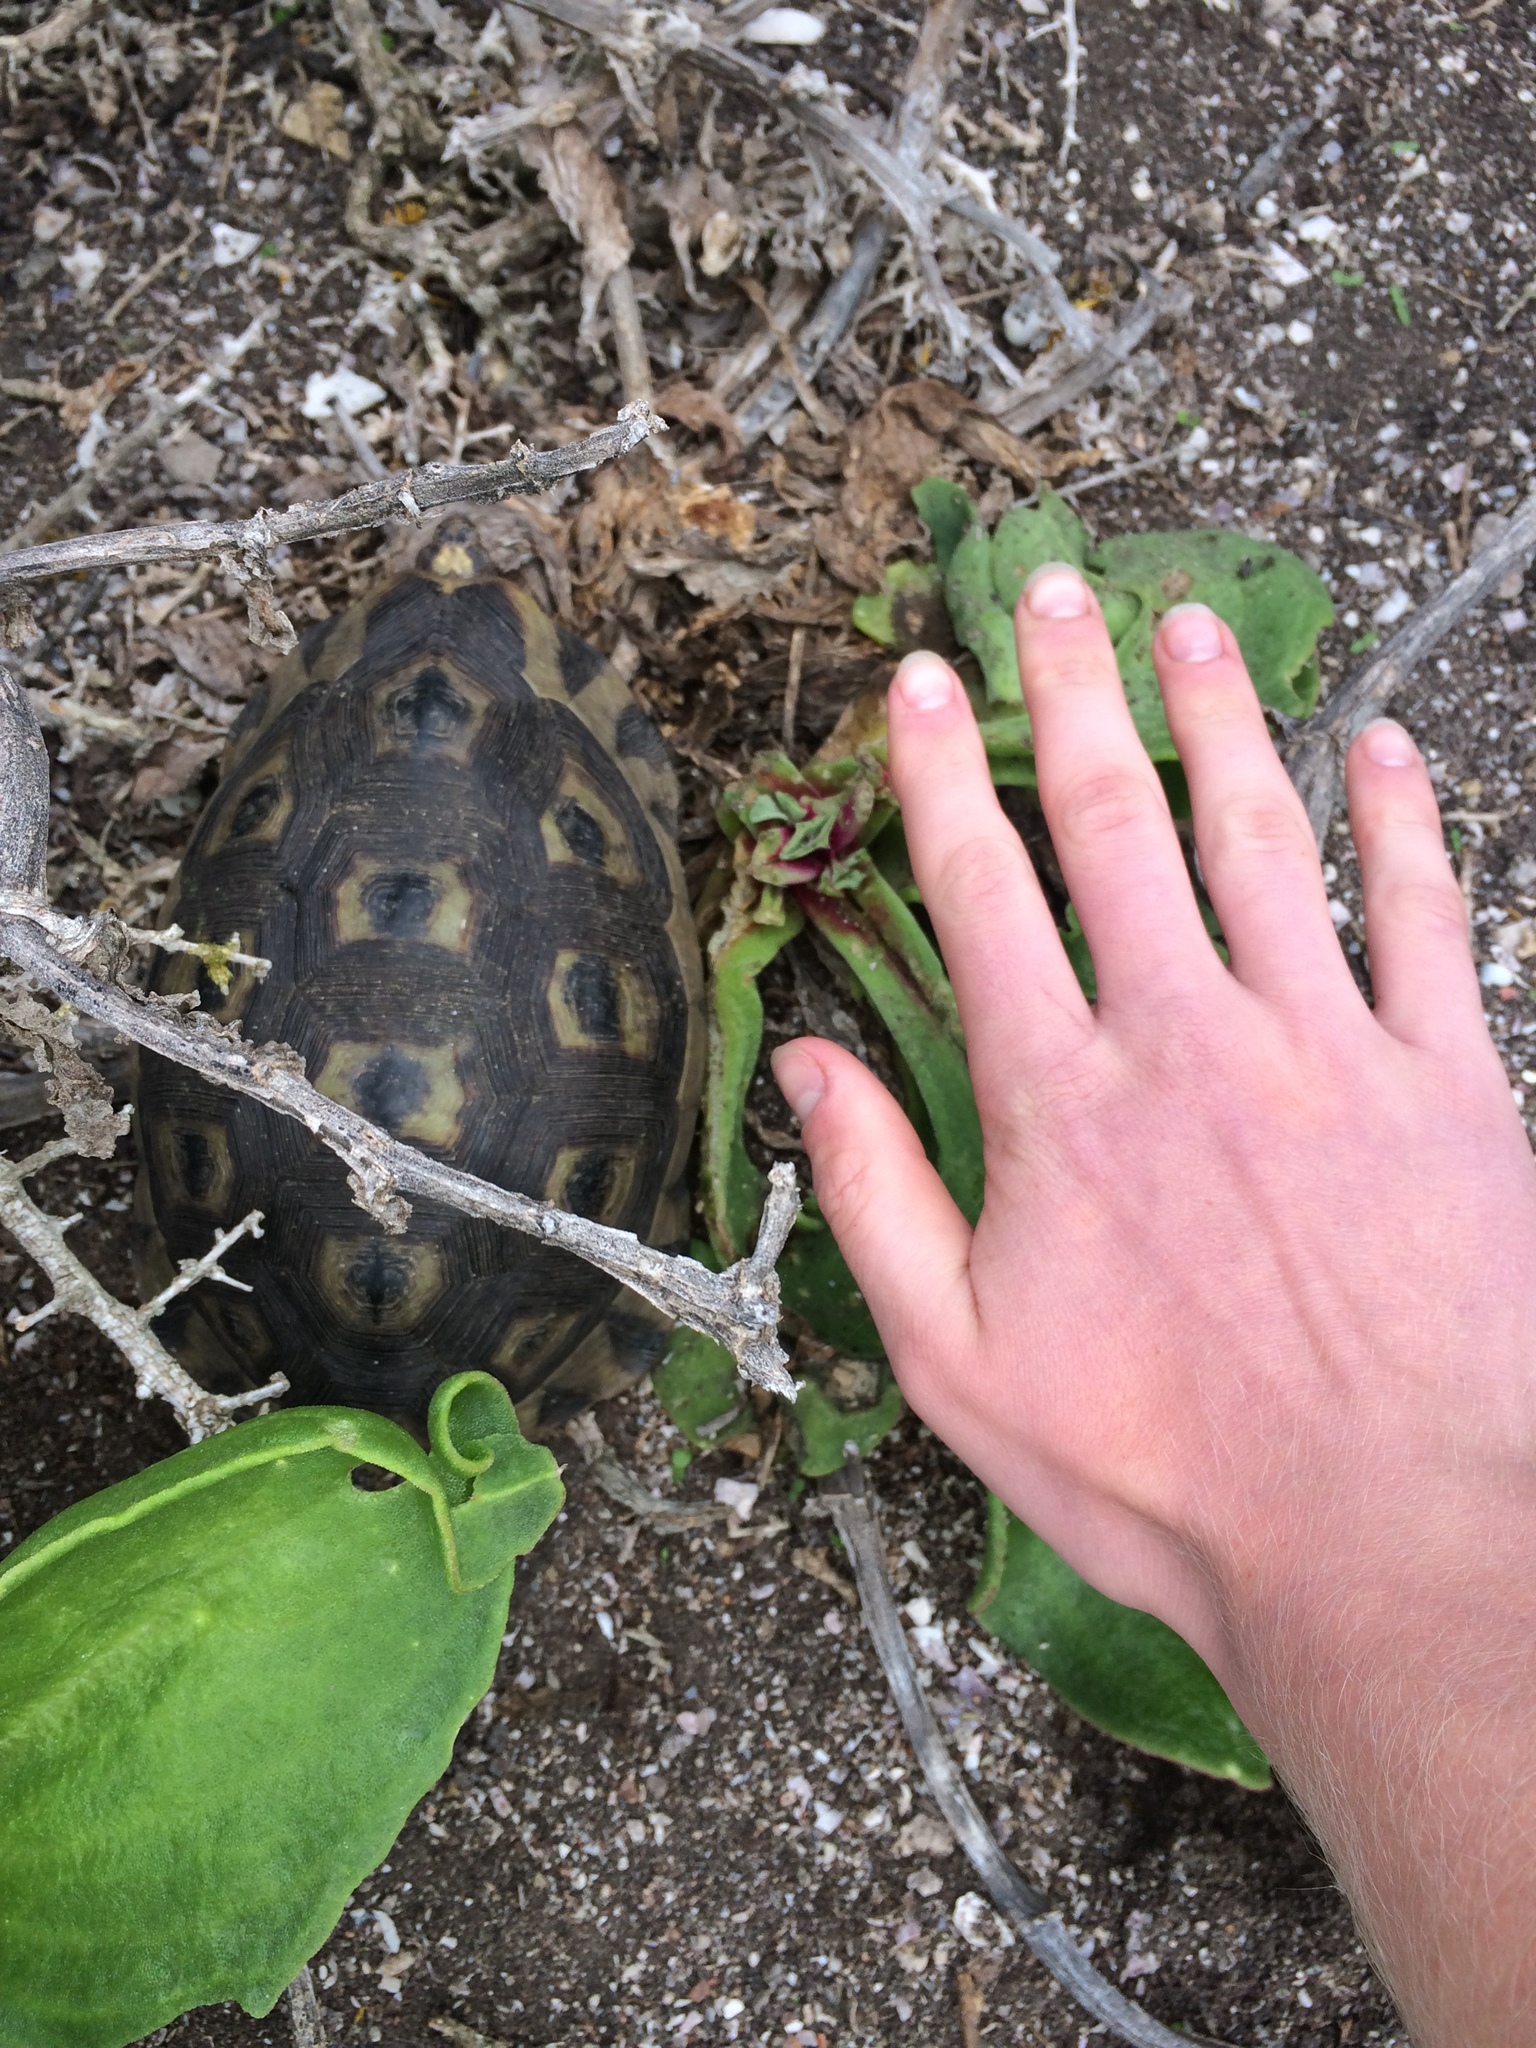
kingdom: Animalia
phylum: Chordata
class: Testudines
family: Testudinidae
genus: Chersina
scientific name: Chersina angulata
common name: South african bowsprit tortoise
